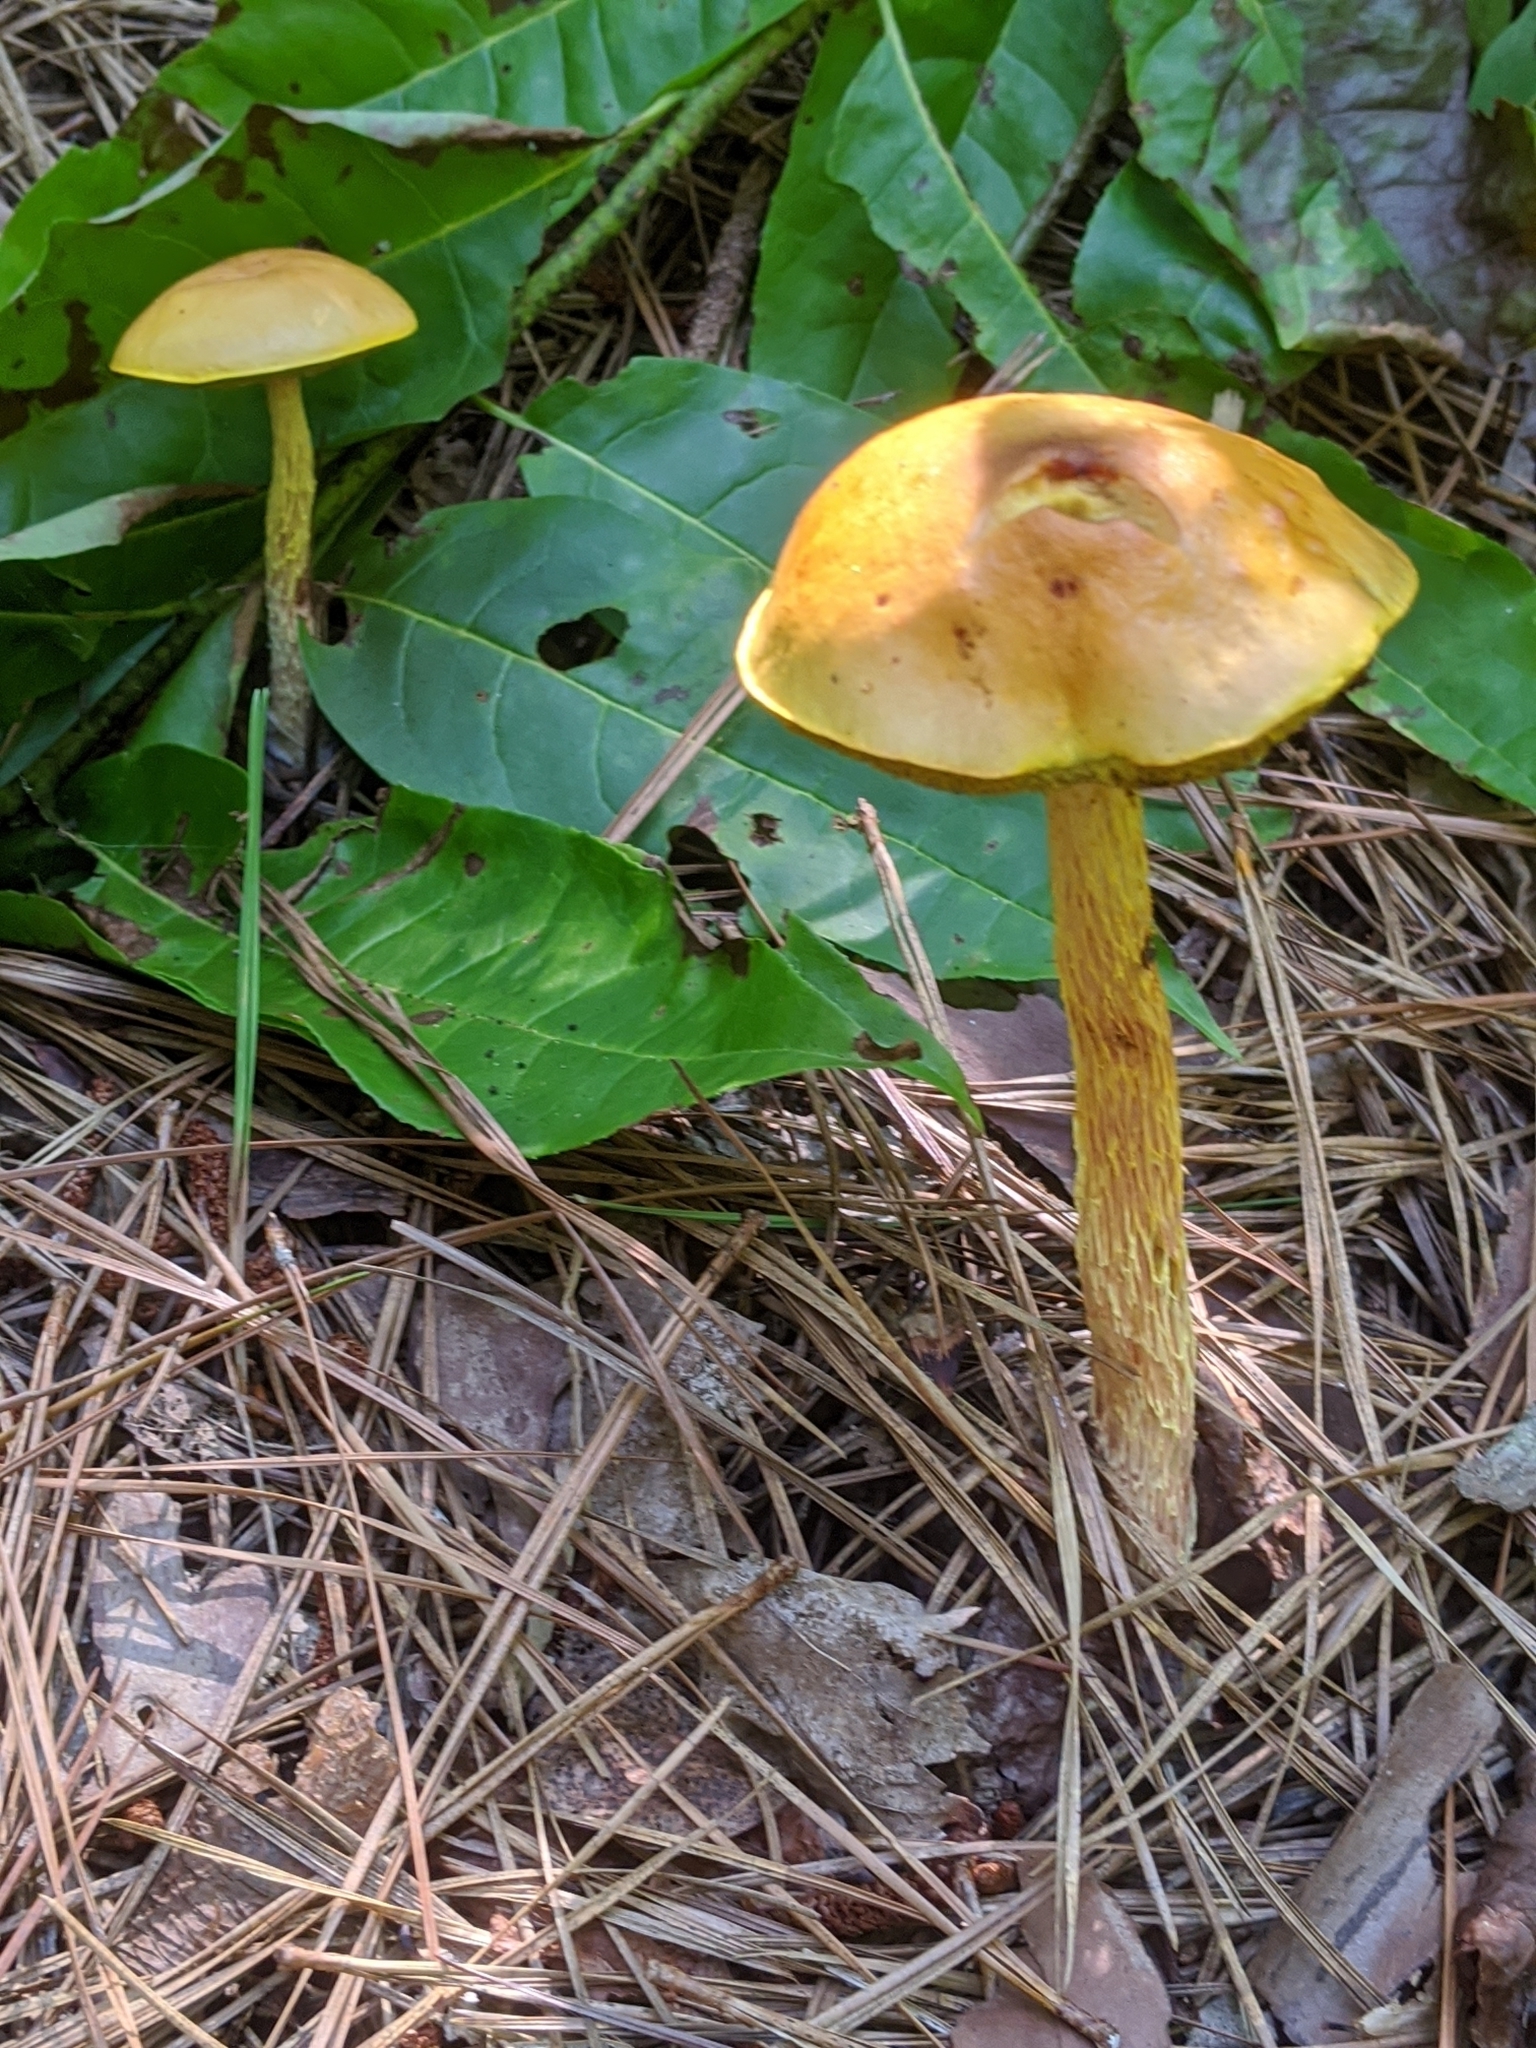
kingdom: Fungi
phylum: Basidiomycota
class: Agaricomycetes
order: Boletales
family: Boletaceae
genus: Aureoboletus
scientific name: Aureoboletus betula
